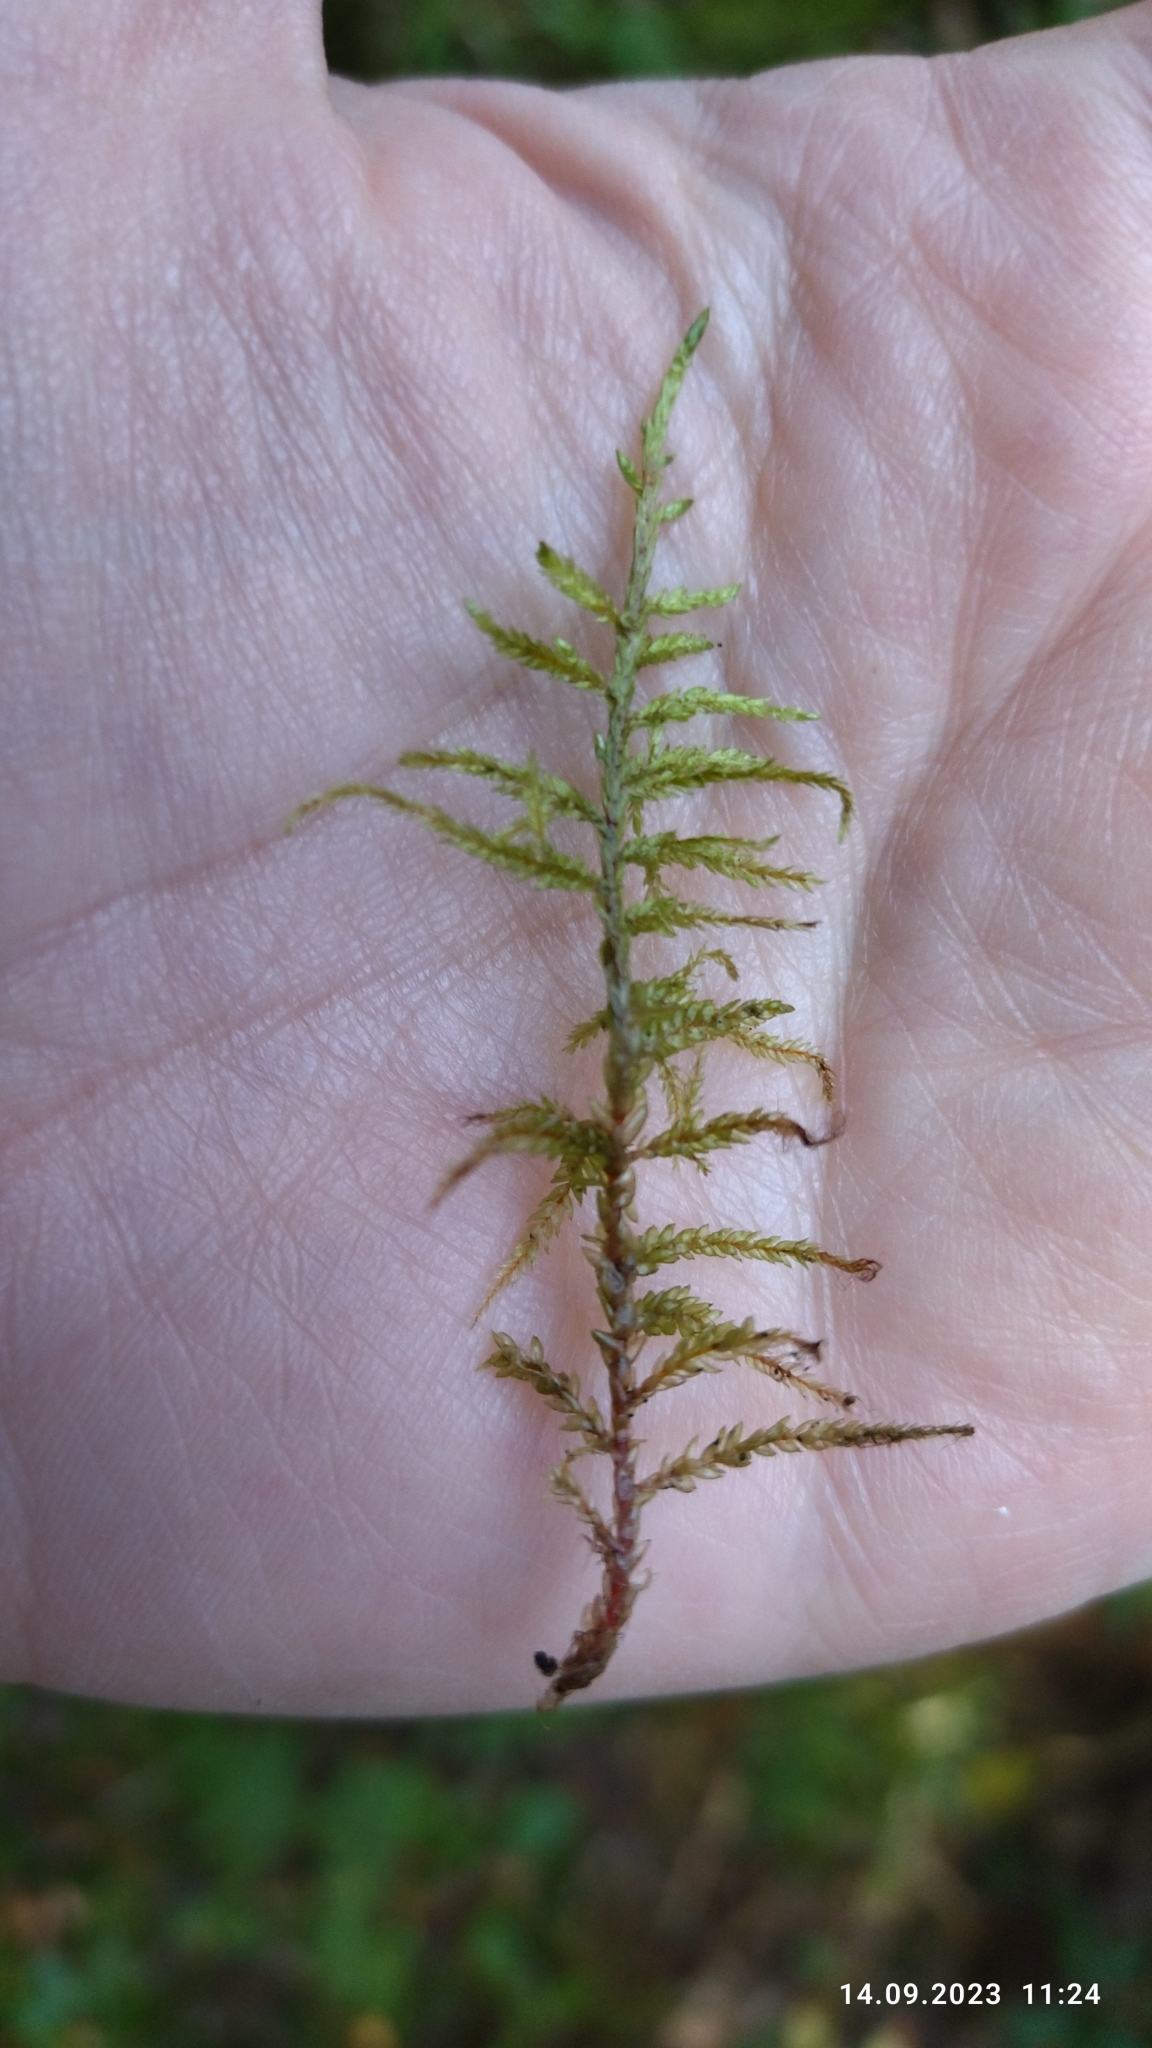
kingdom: Plantae
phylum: Bryophyta
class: Bryopsida
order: Hypnales
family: Hylocomiaceae
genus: Pleurozium
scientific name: Pleurozium schreberi
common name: Red-stemmed feather moss
